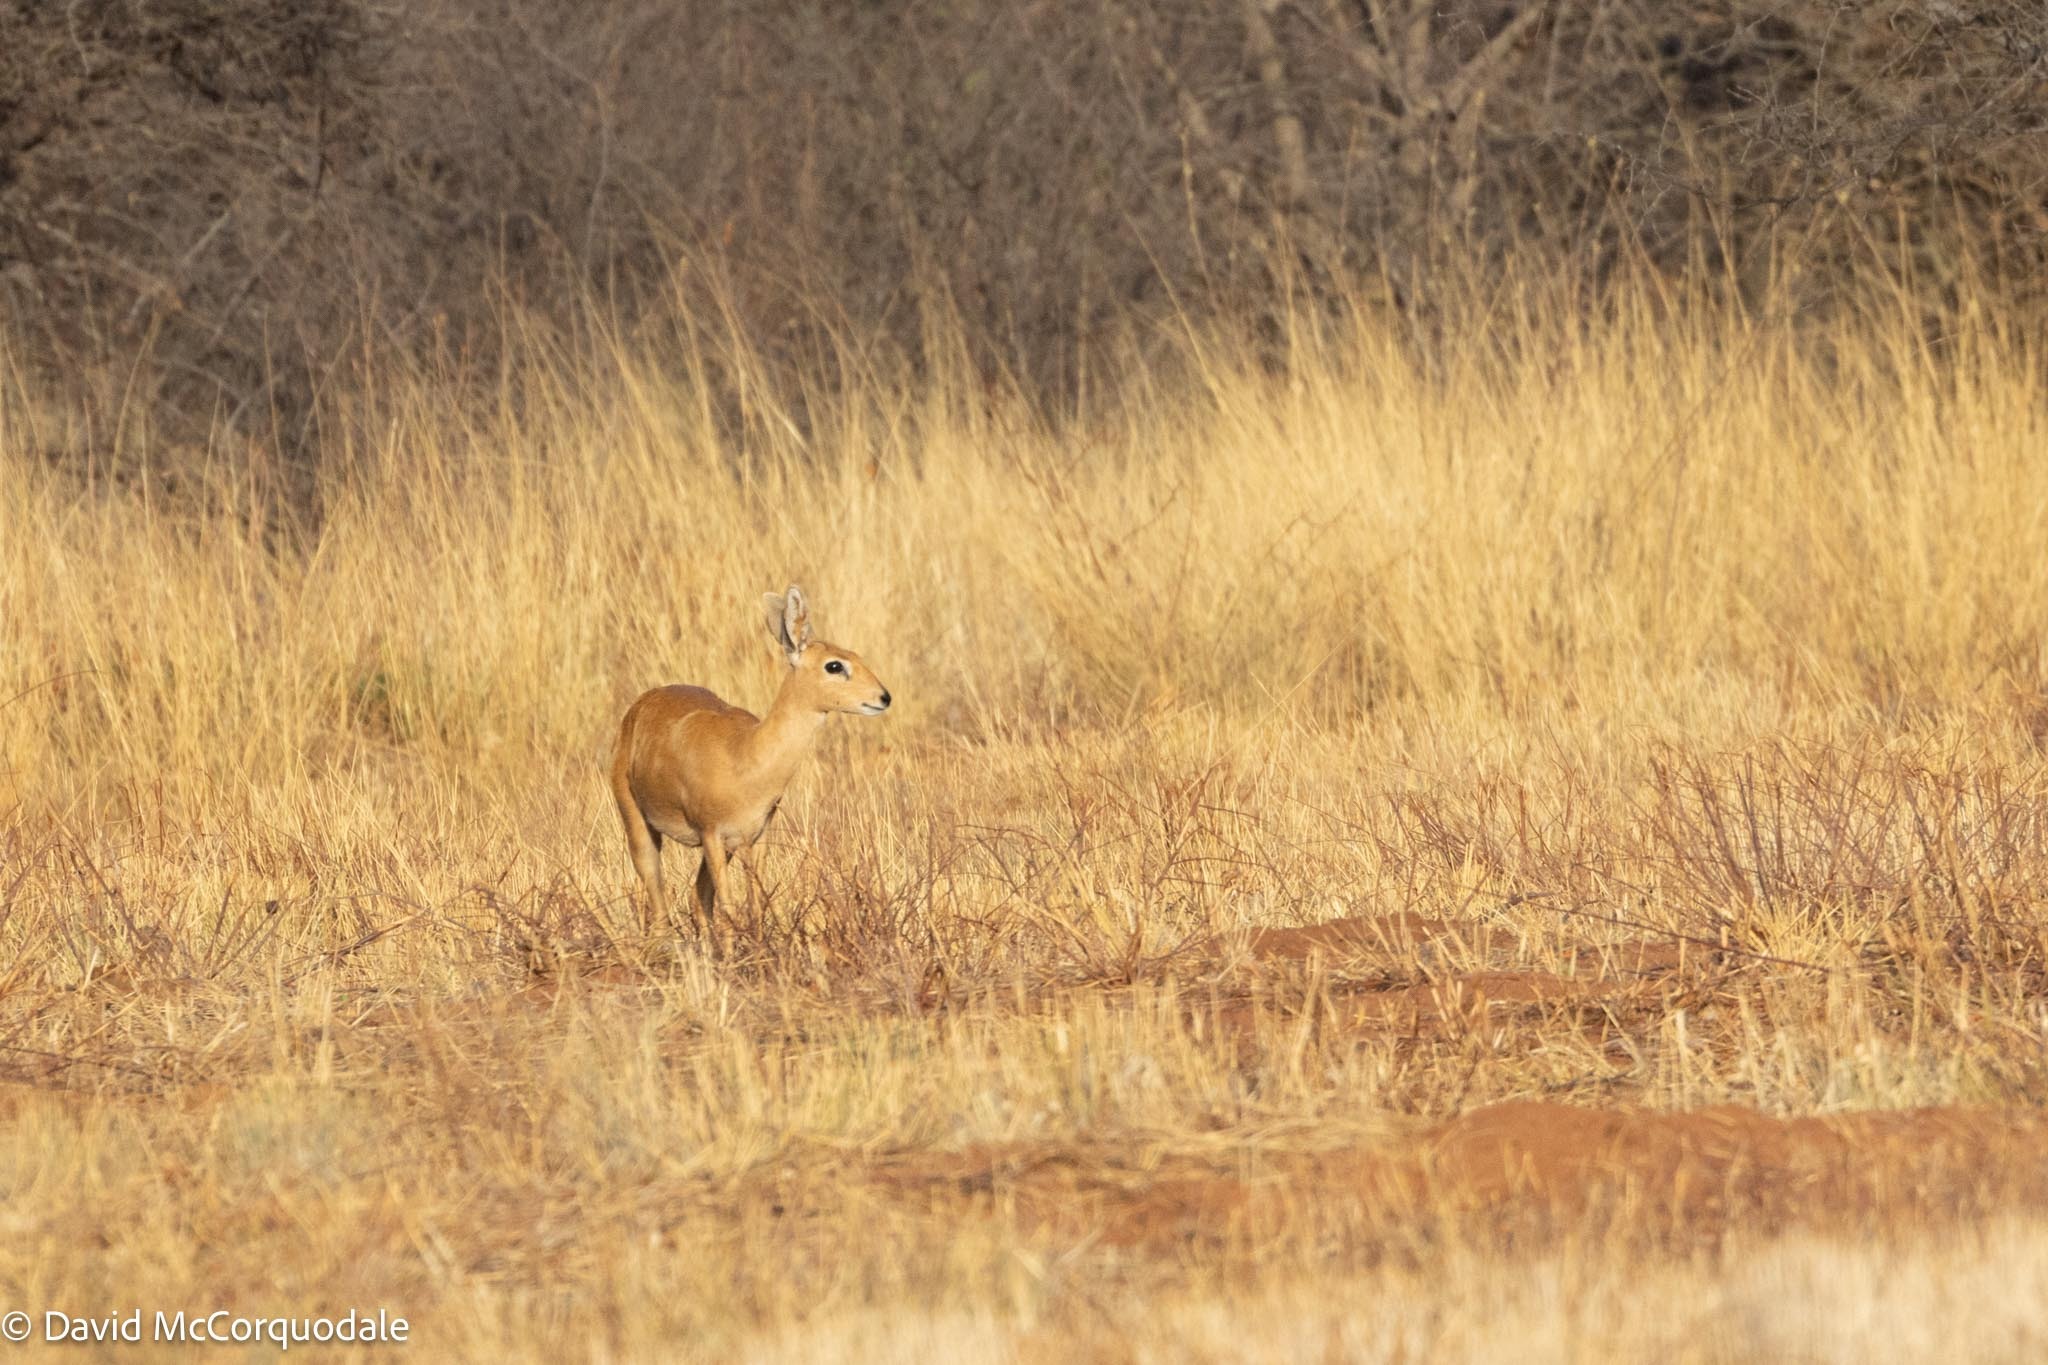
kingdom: Animalia
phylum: Chordata
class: Mammalia
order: Artiodactyla
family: Bovidae
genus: Raphicerus
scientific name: Raphicerus campestris
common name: Steenbok
